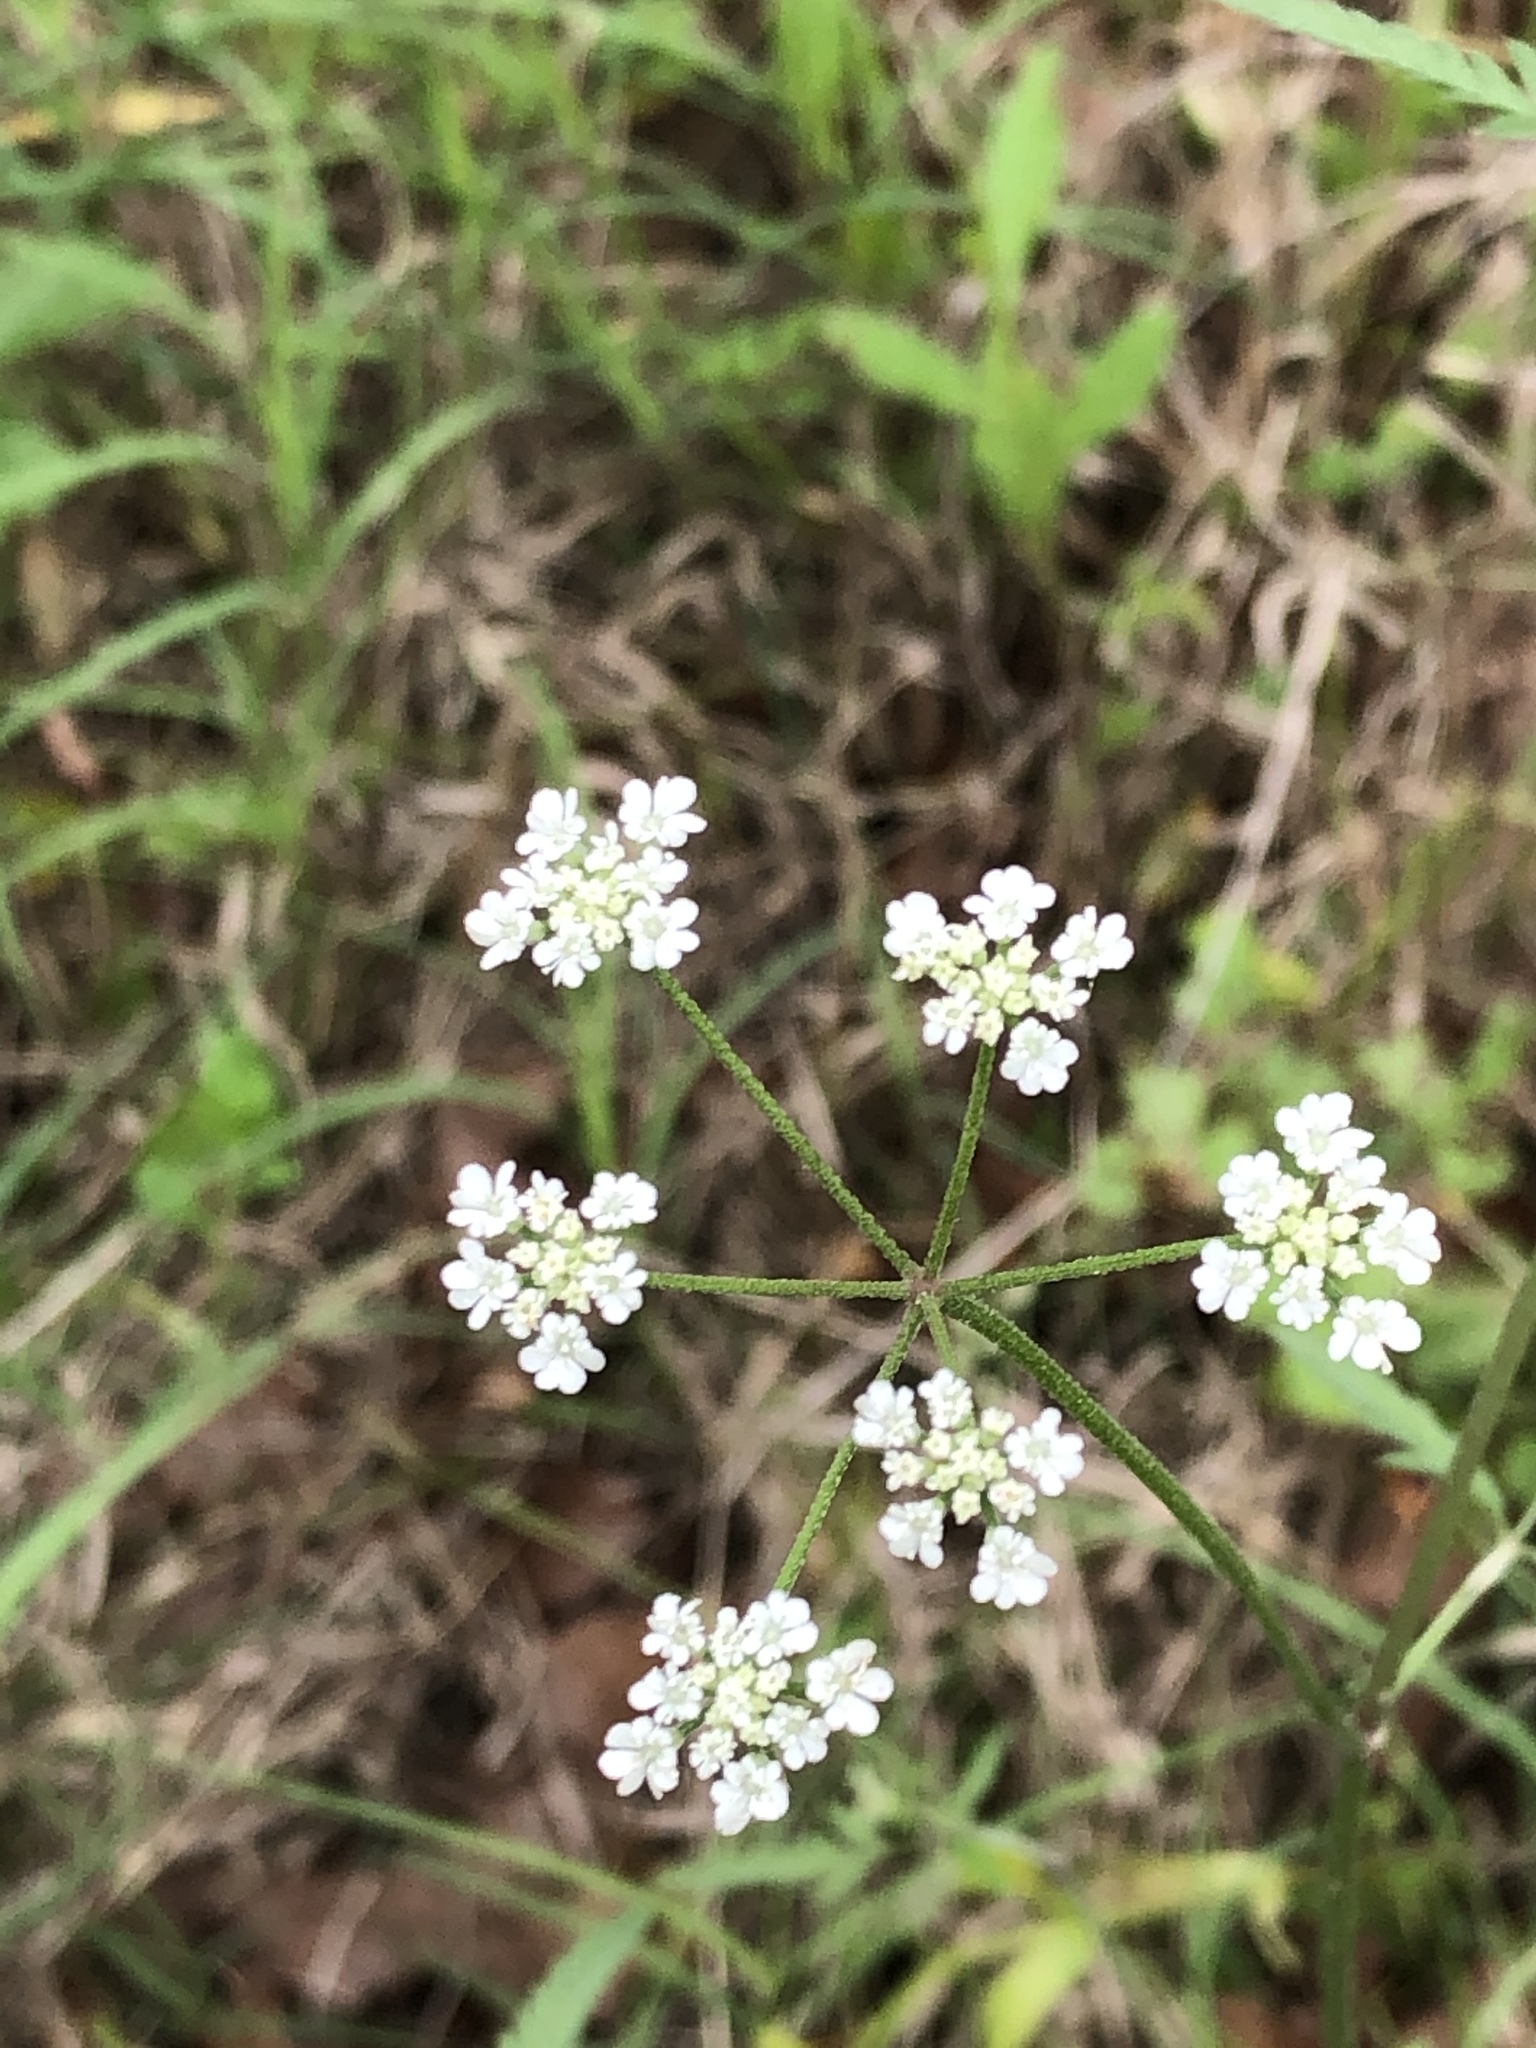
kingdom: Plantae
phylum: Tracheophyta
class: Magnoliopsida
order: Apiales
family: Apiaceae
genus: Torilis
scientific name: Torilis arvensis
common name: Spreading hedge-parsley
